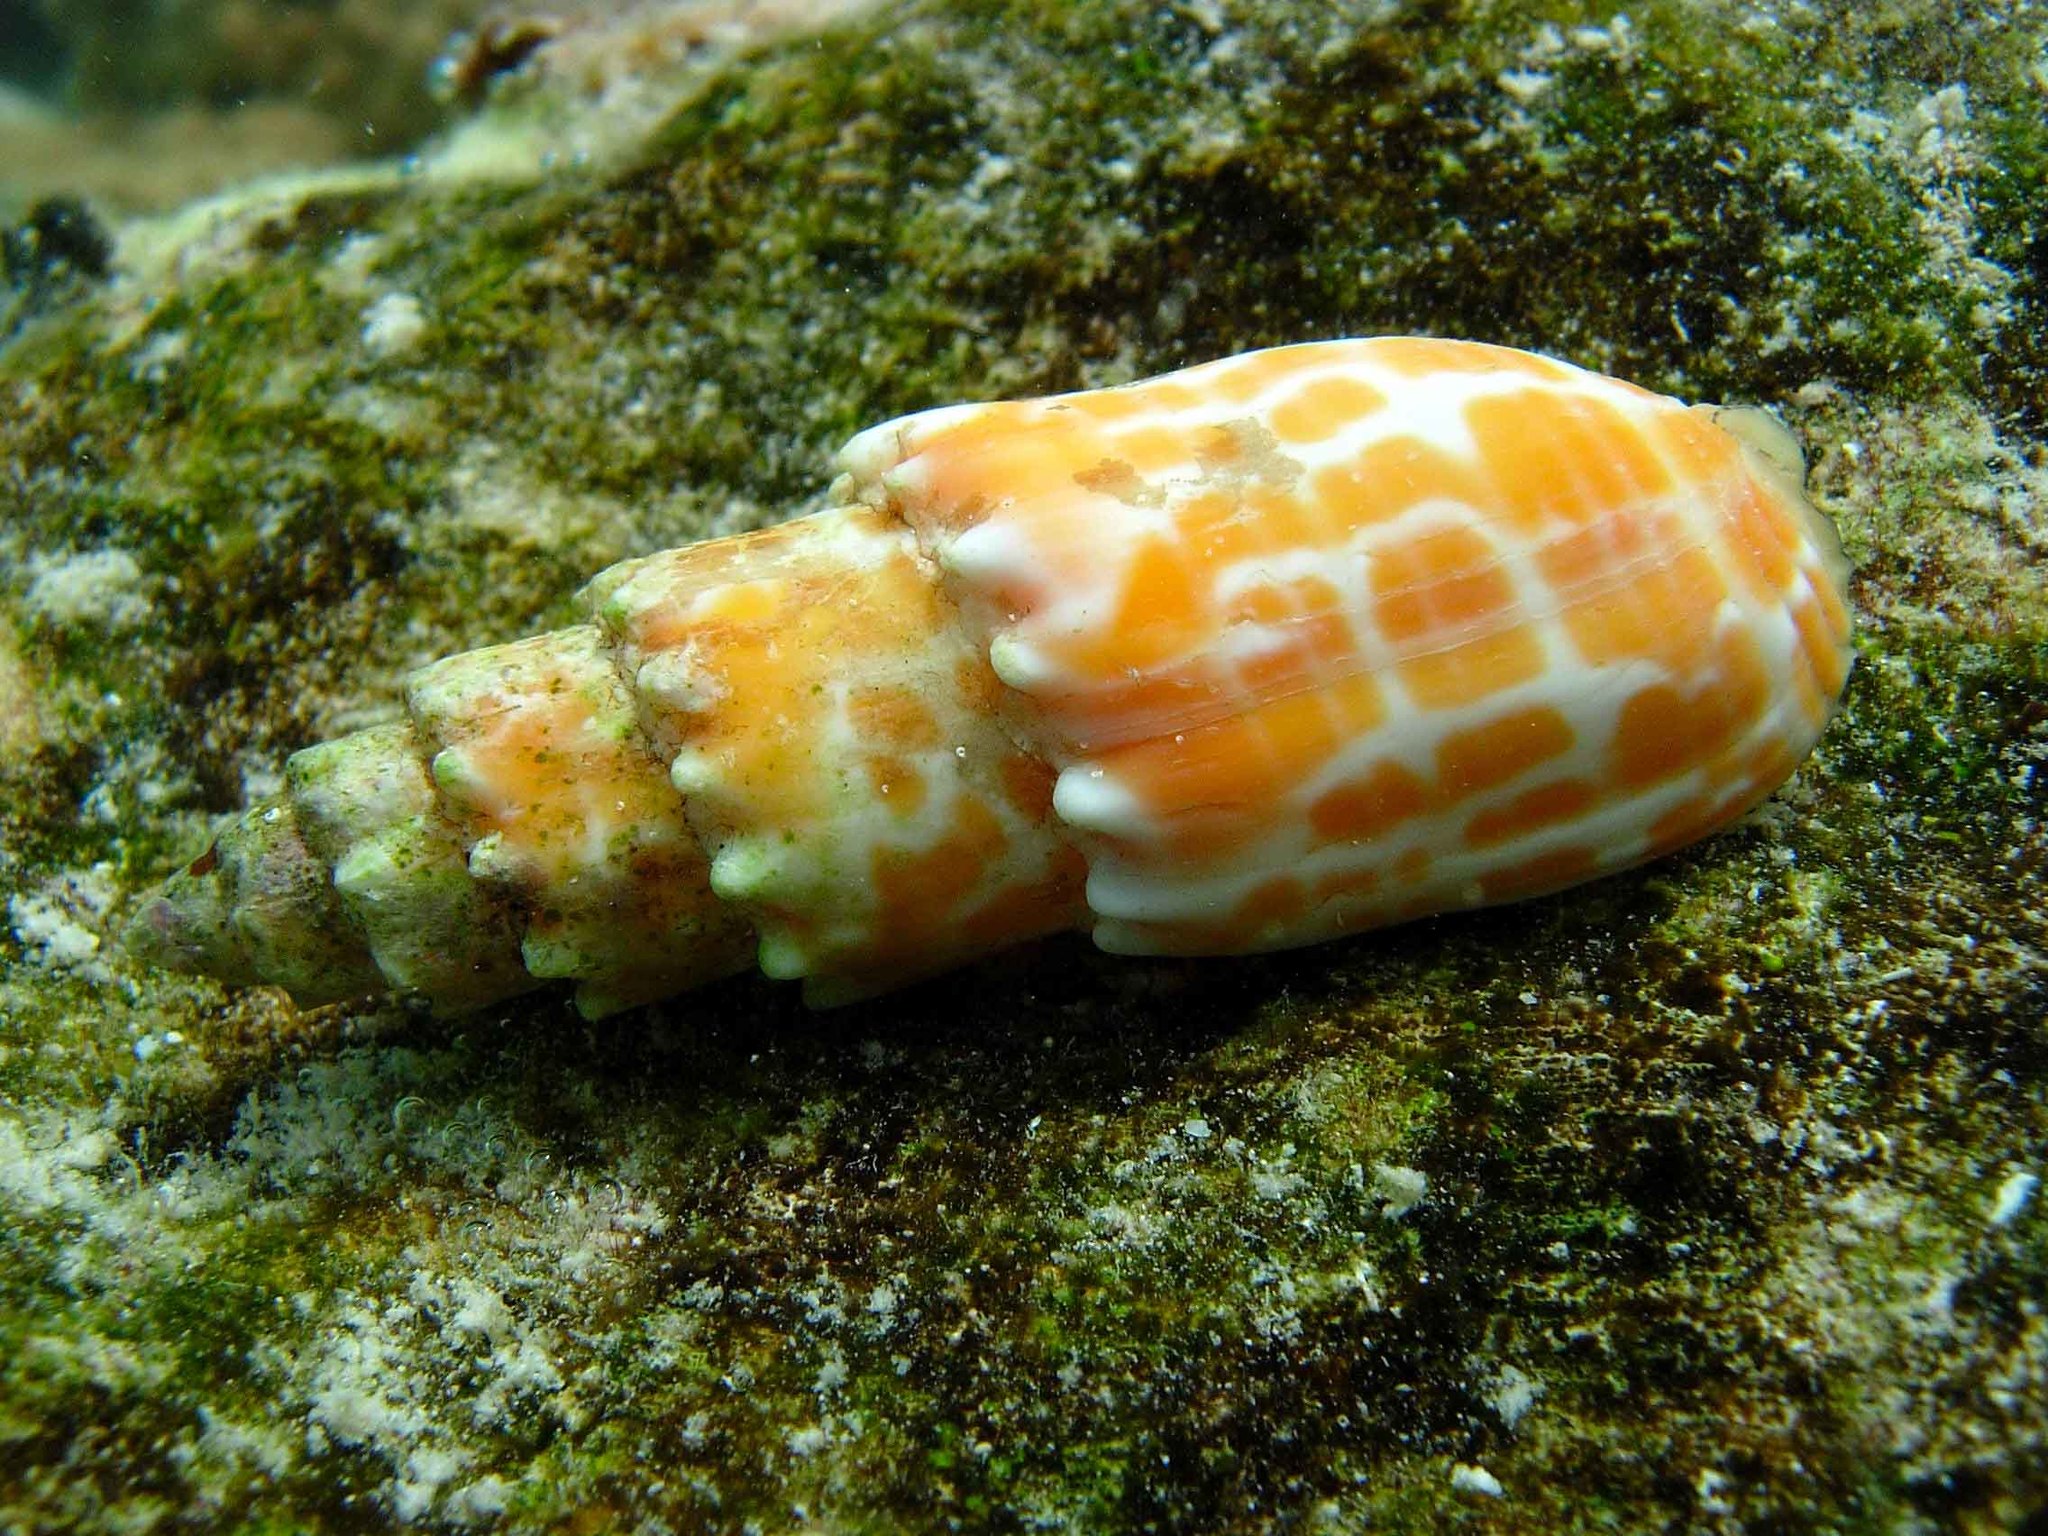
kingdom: Animalia
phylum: Mollusca
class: Gastropoda
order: Neogastropoda
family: Mitridae
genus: Mitra
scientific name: Mitra stictica
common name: Pontifical miter
